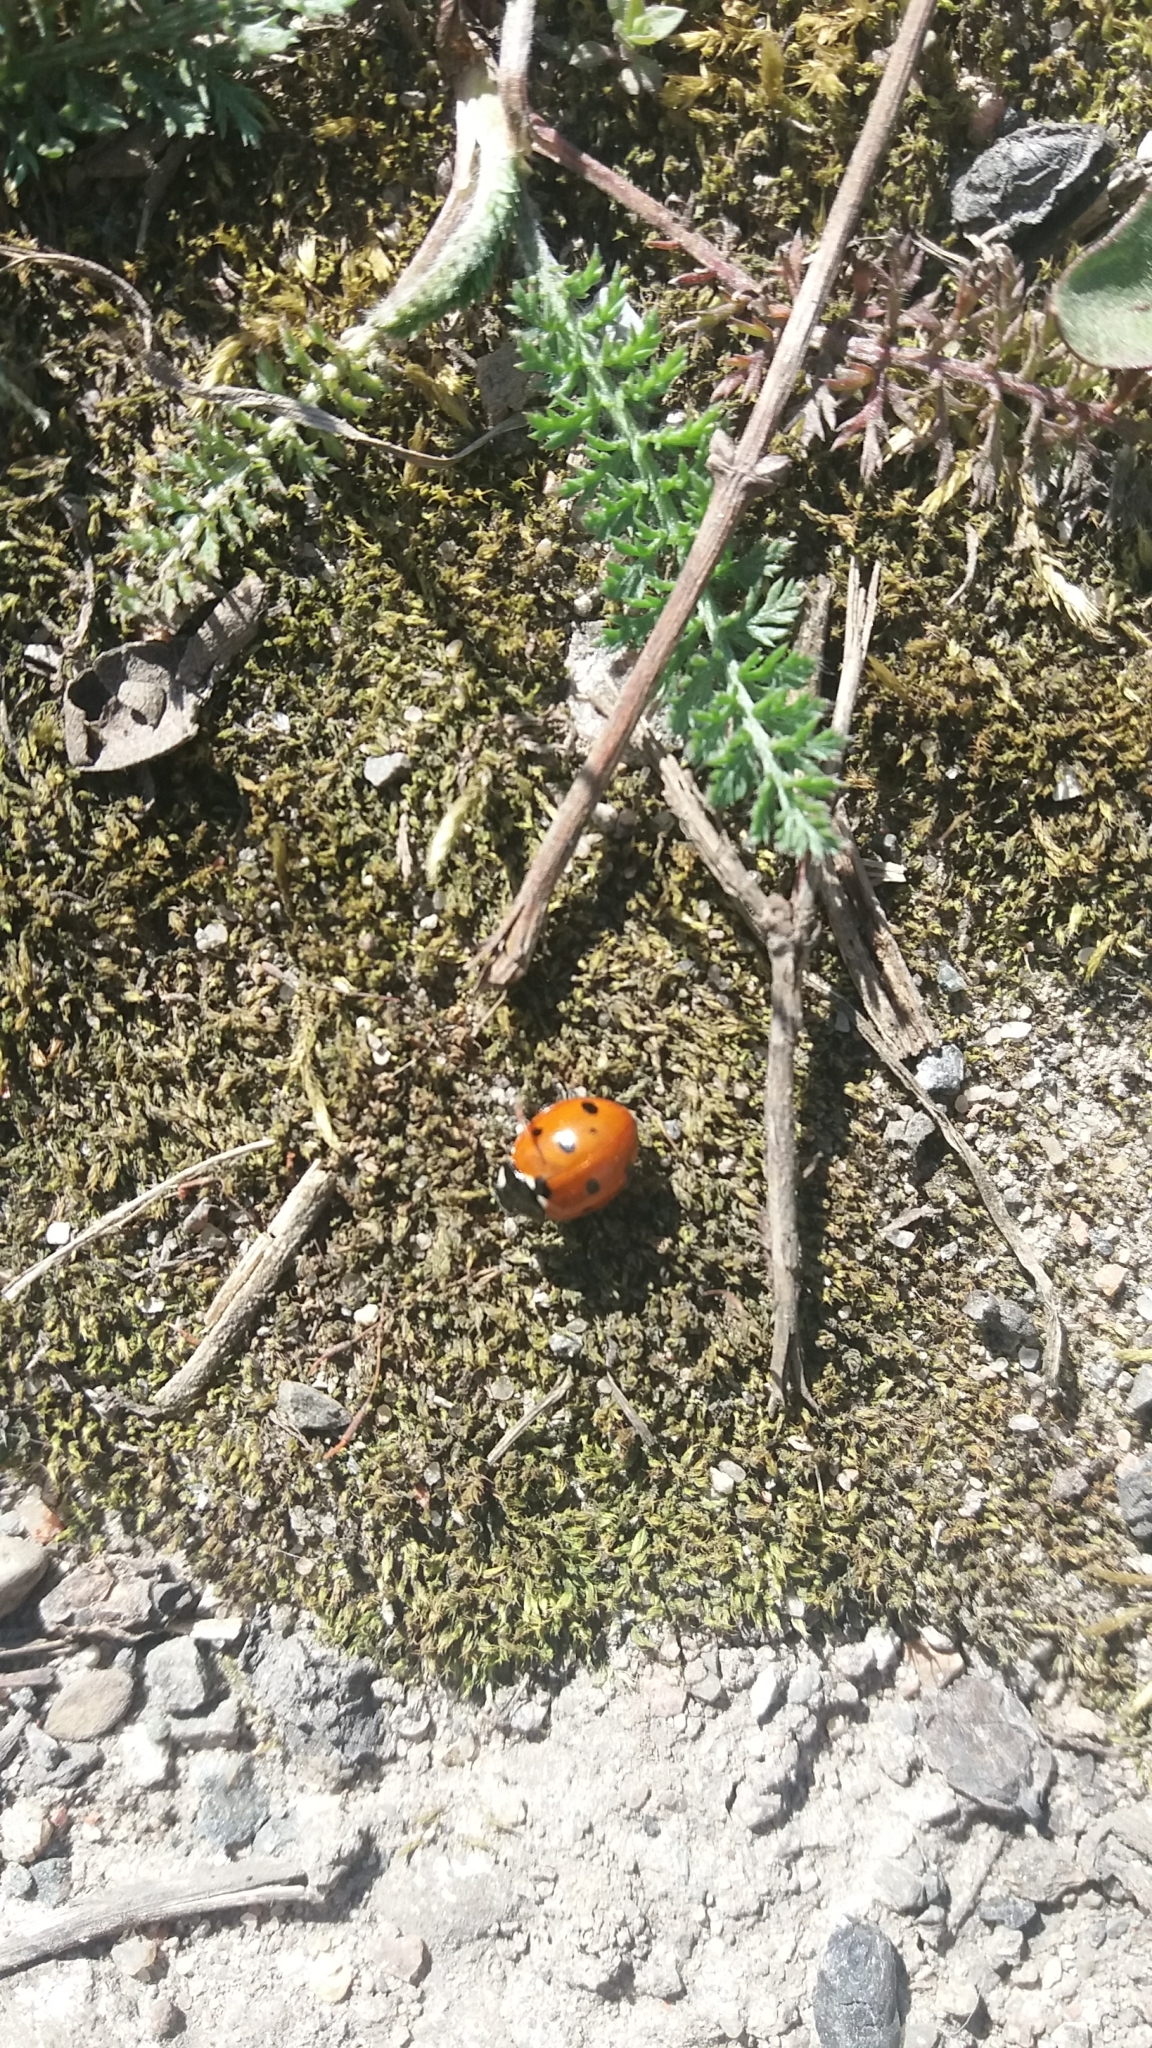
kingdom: Animalia
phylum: Arthropoda
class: Insecta
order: Coleoptera
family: Coccinellidae
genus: Coccinella
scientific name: Coccinella septempunctata
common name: Sevenspotted lady beetle
